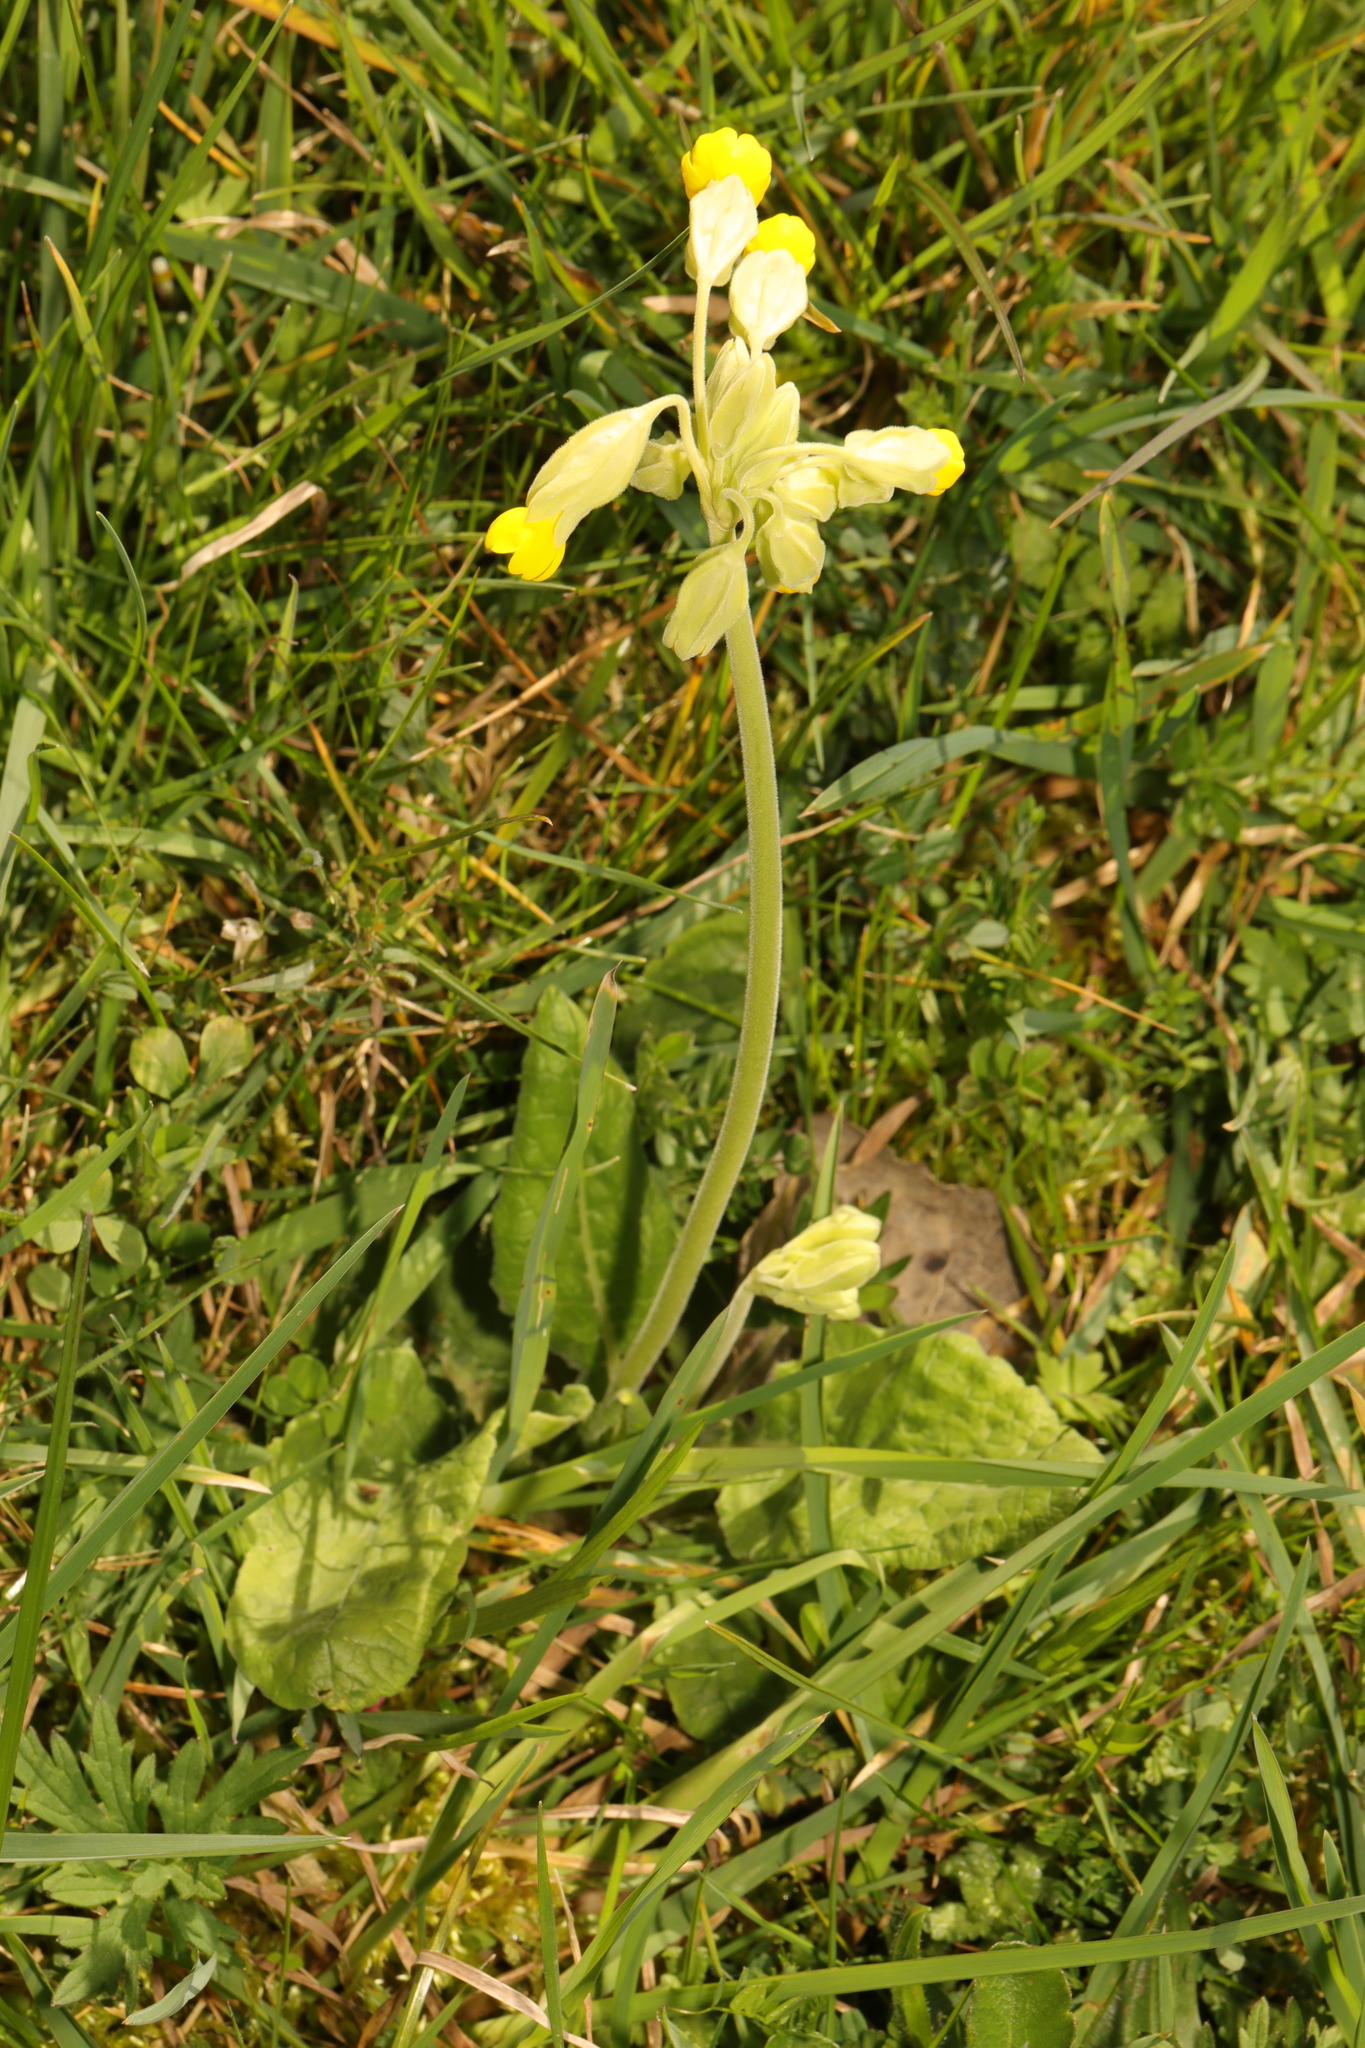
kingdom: Plantae
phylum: Tracheophyta
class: Magnoliopsida
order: Ericales
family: Primulaceae
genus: Primula
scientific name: Primula veris
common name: Cowslip
